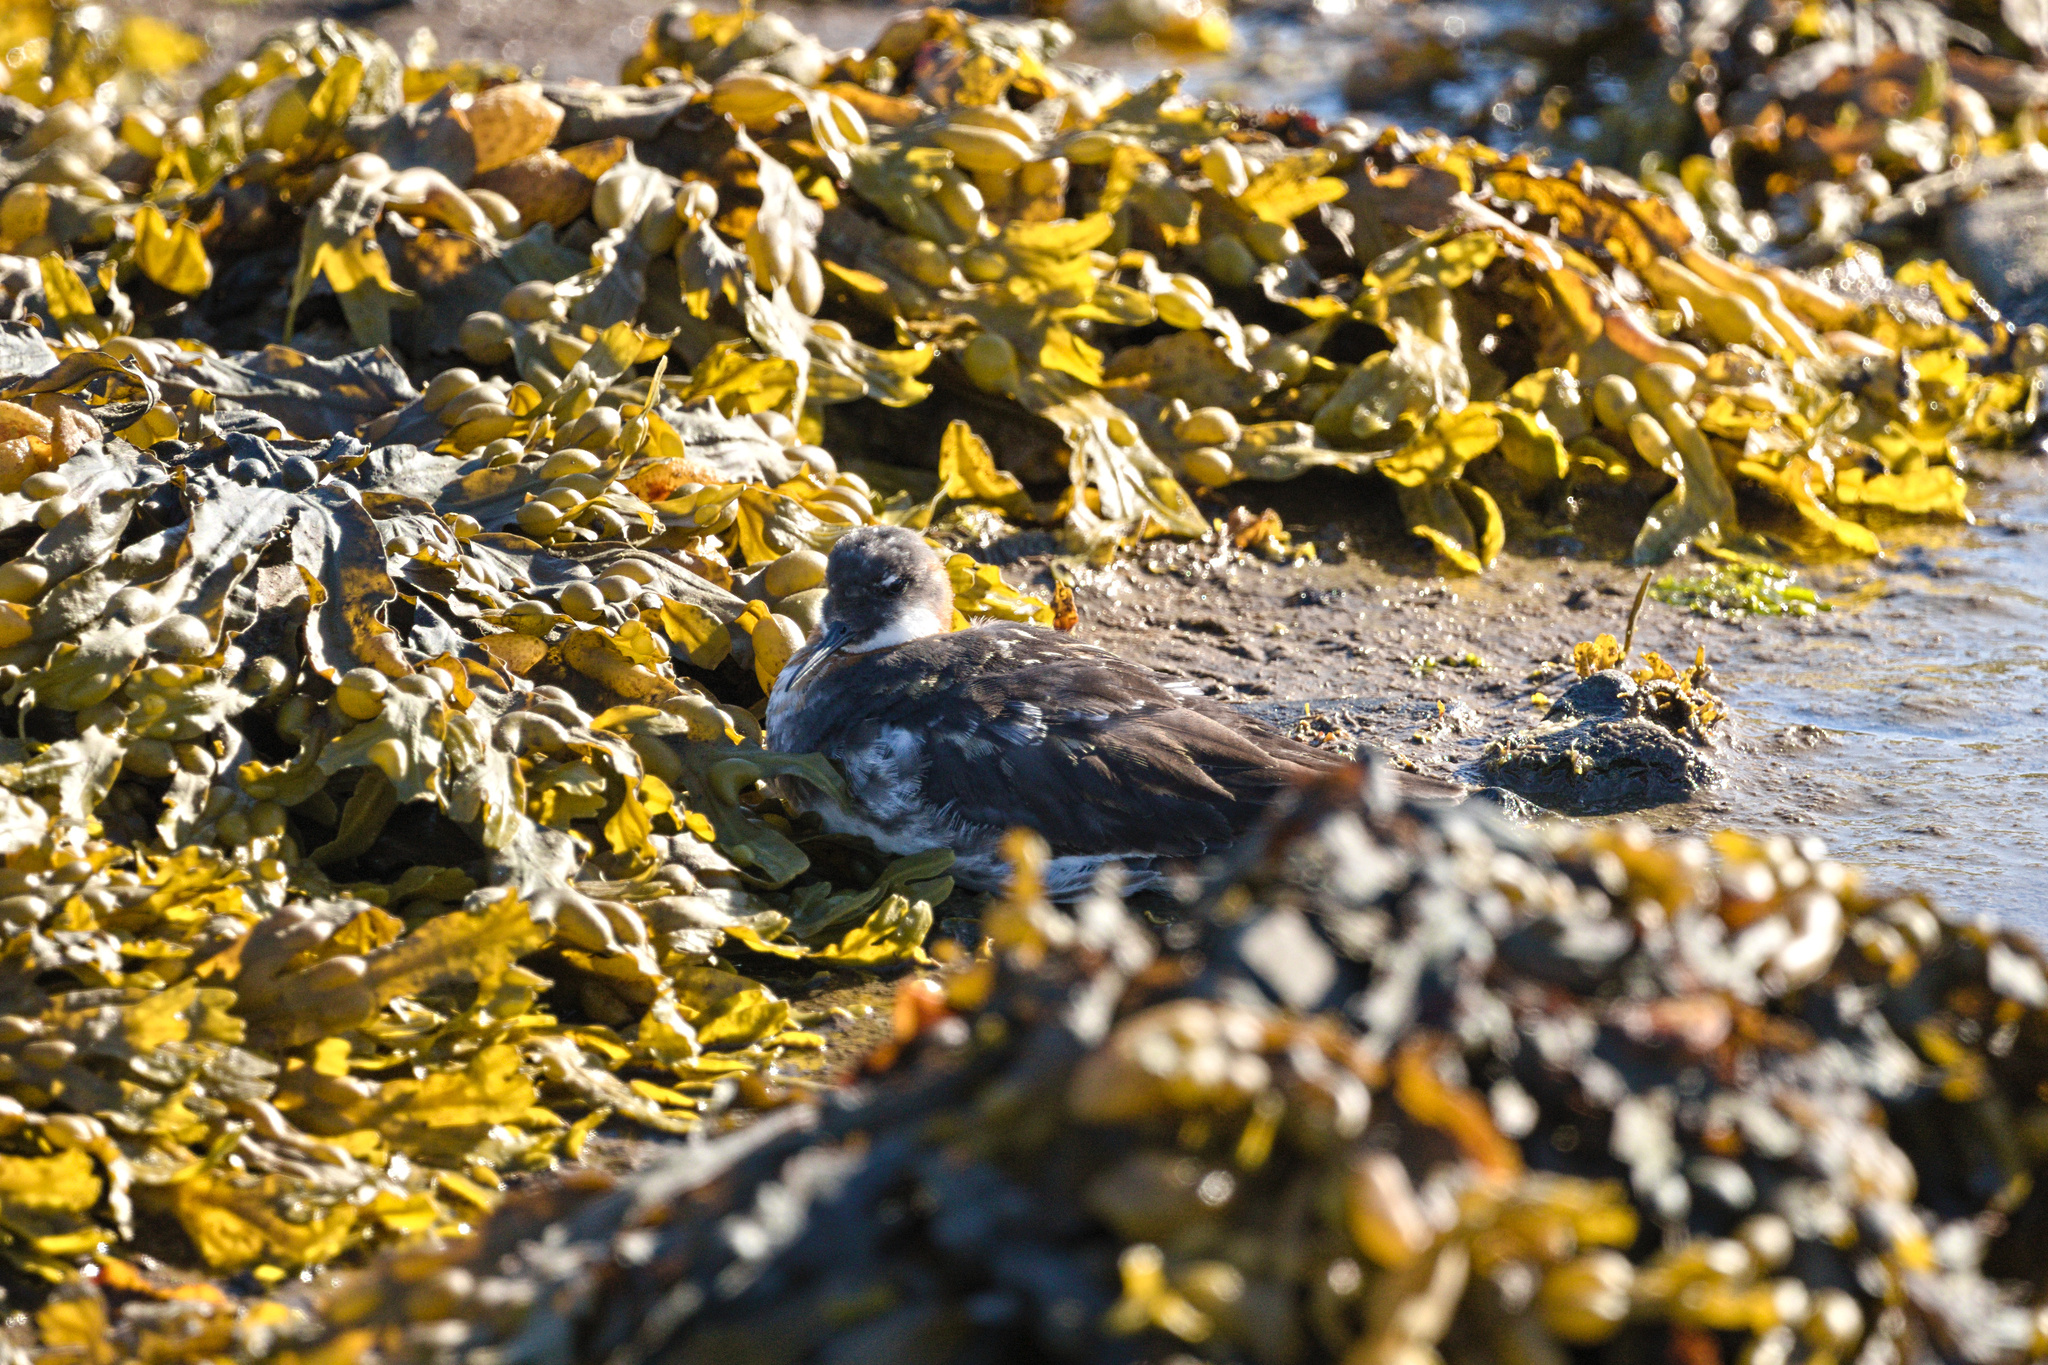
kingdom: Animalia
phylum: Chordata
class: Aves
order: Charadriiformes
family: Scolopacidae
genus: Phalaropus
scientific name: Phalaropus lobatus
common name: Red-necked phalarope
